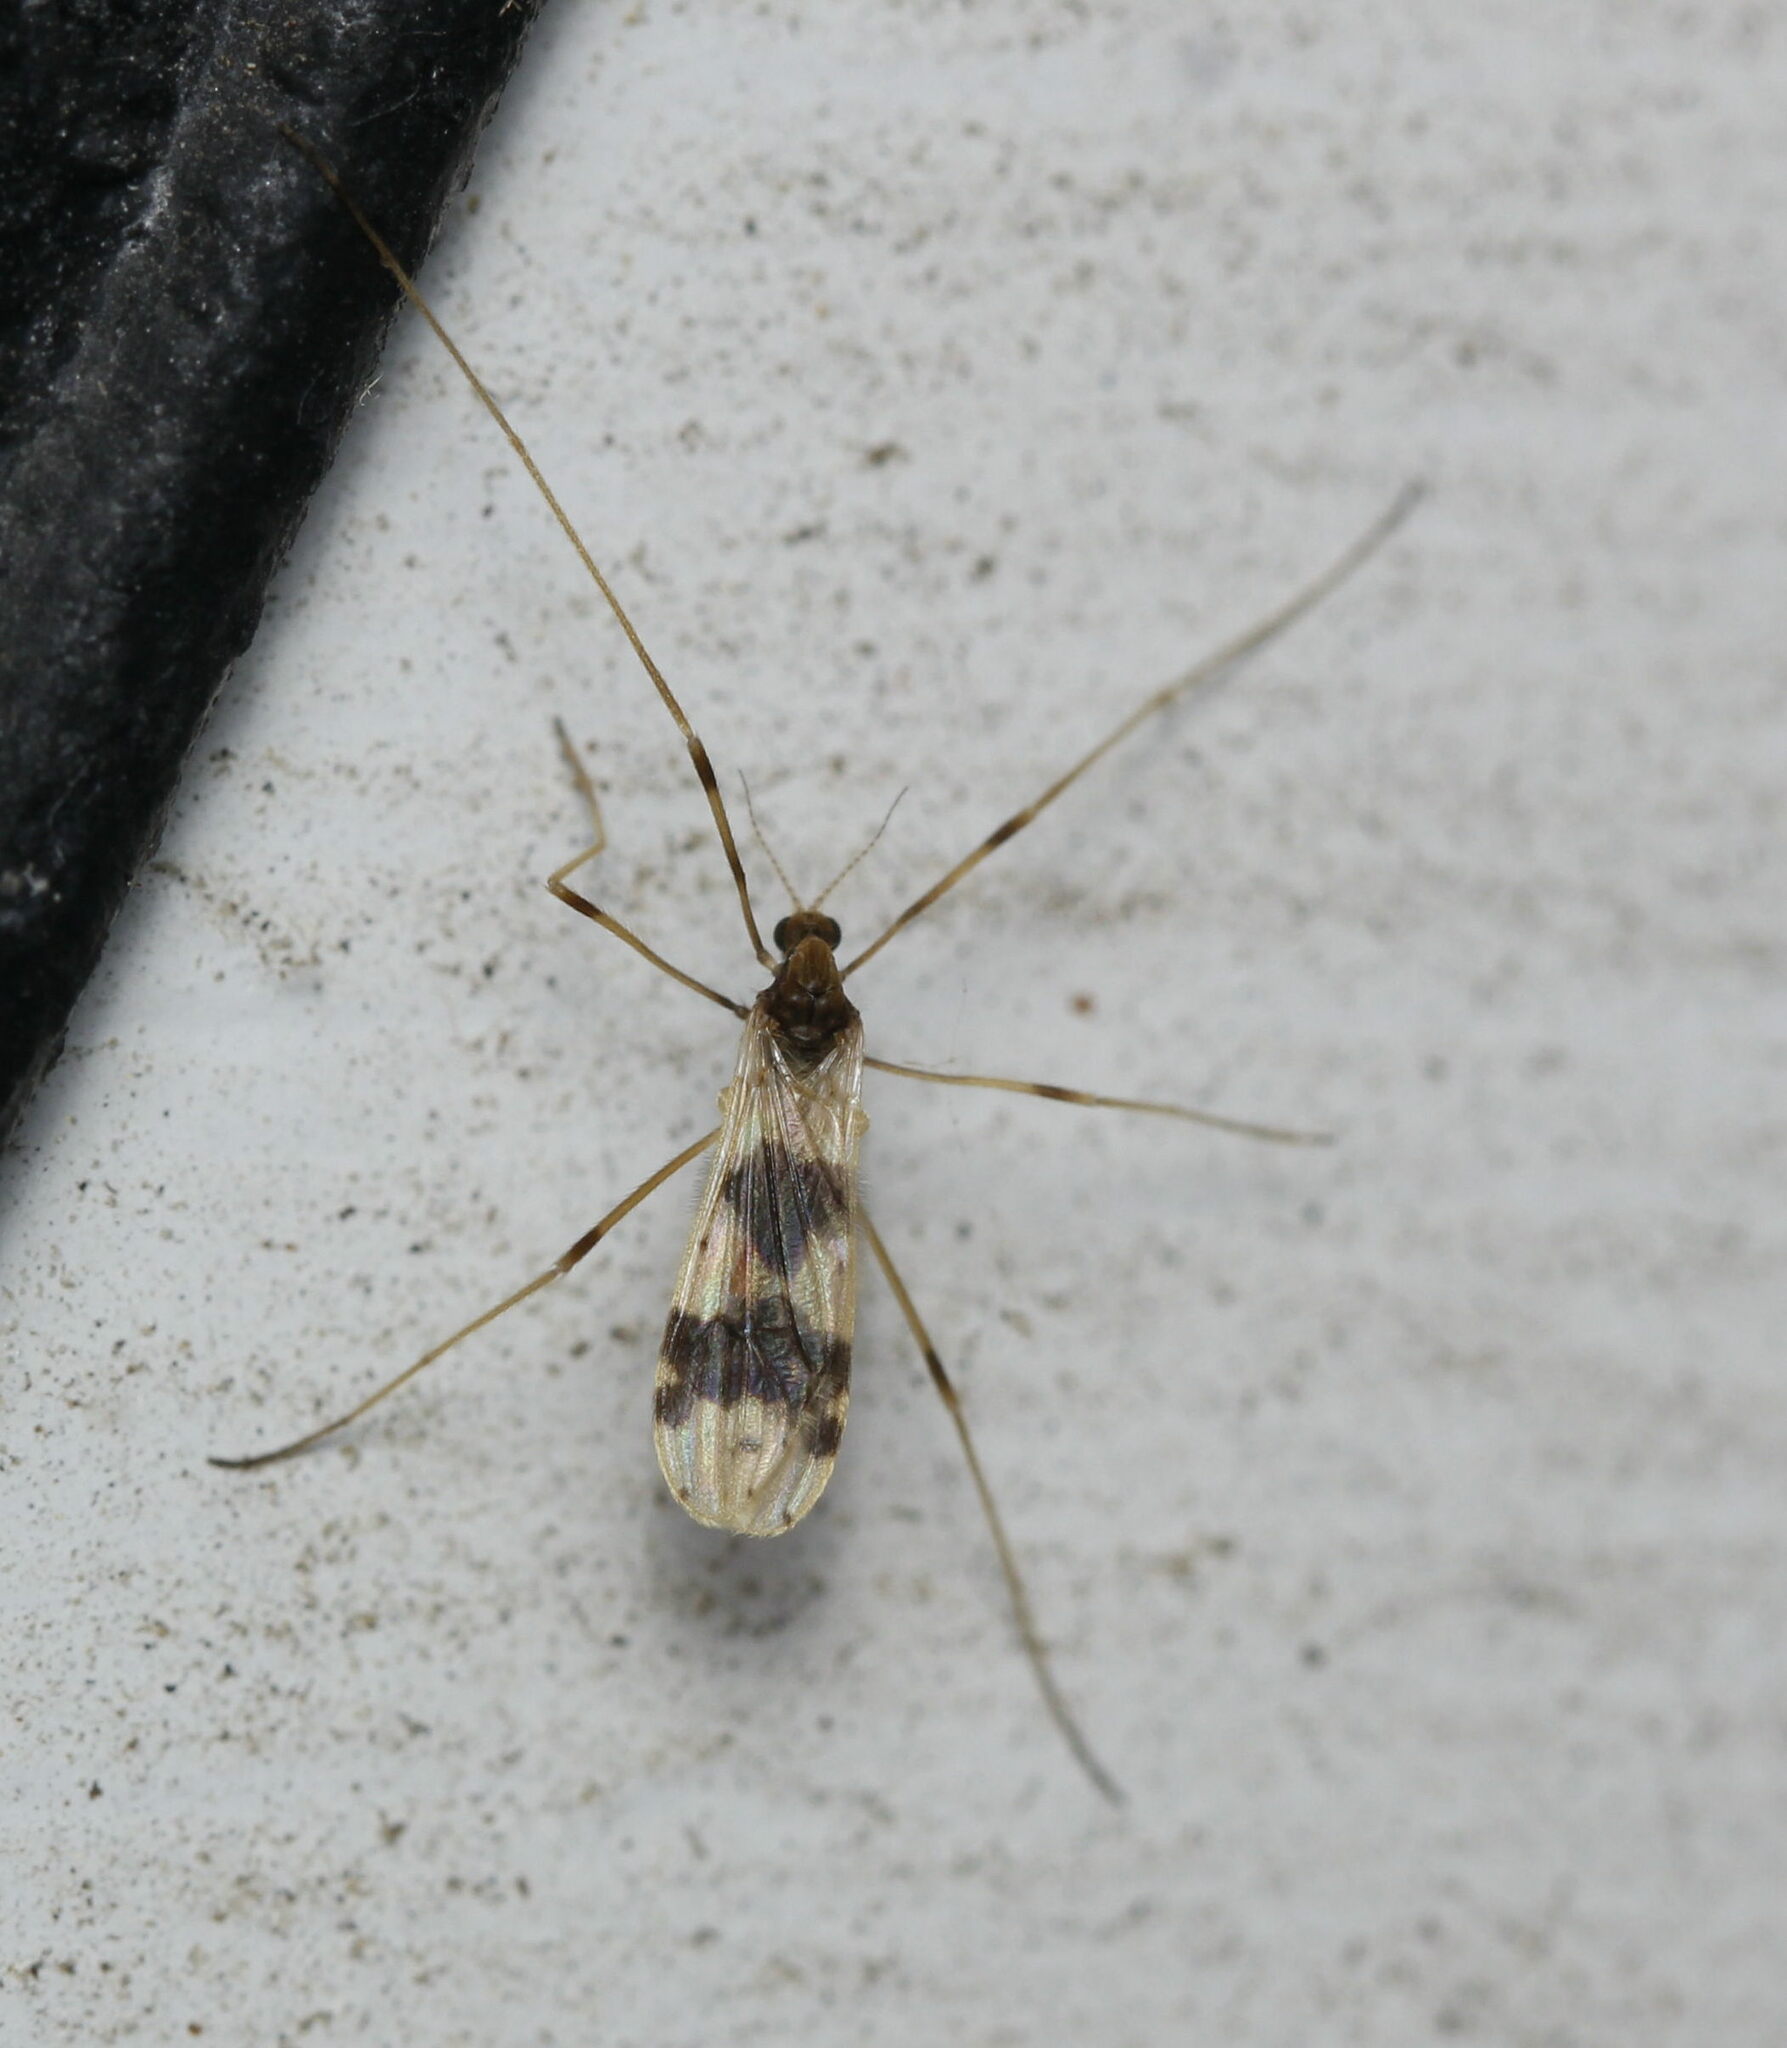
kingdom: Animalia
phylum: Arthropoda
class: Insecta
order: Diptera
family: Limoniidae
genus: Ilisia
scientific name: Ilisia venusta
